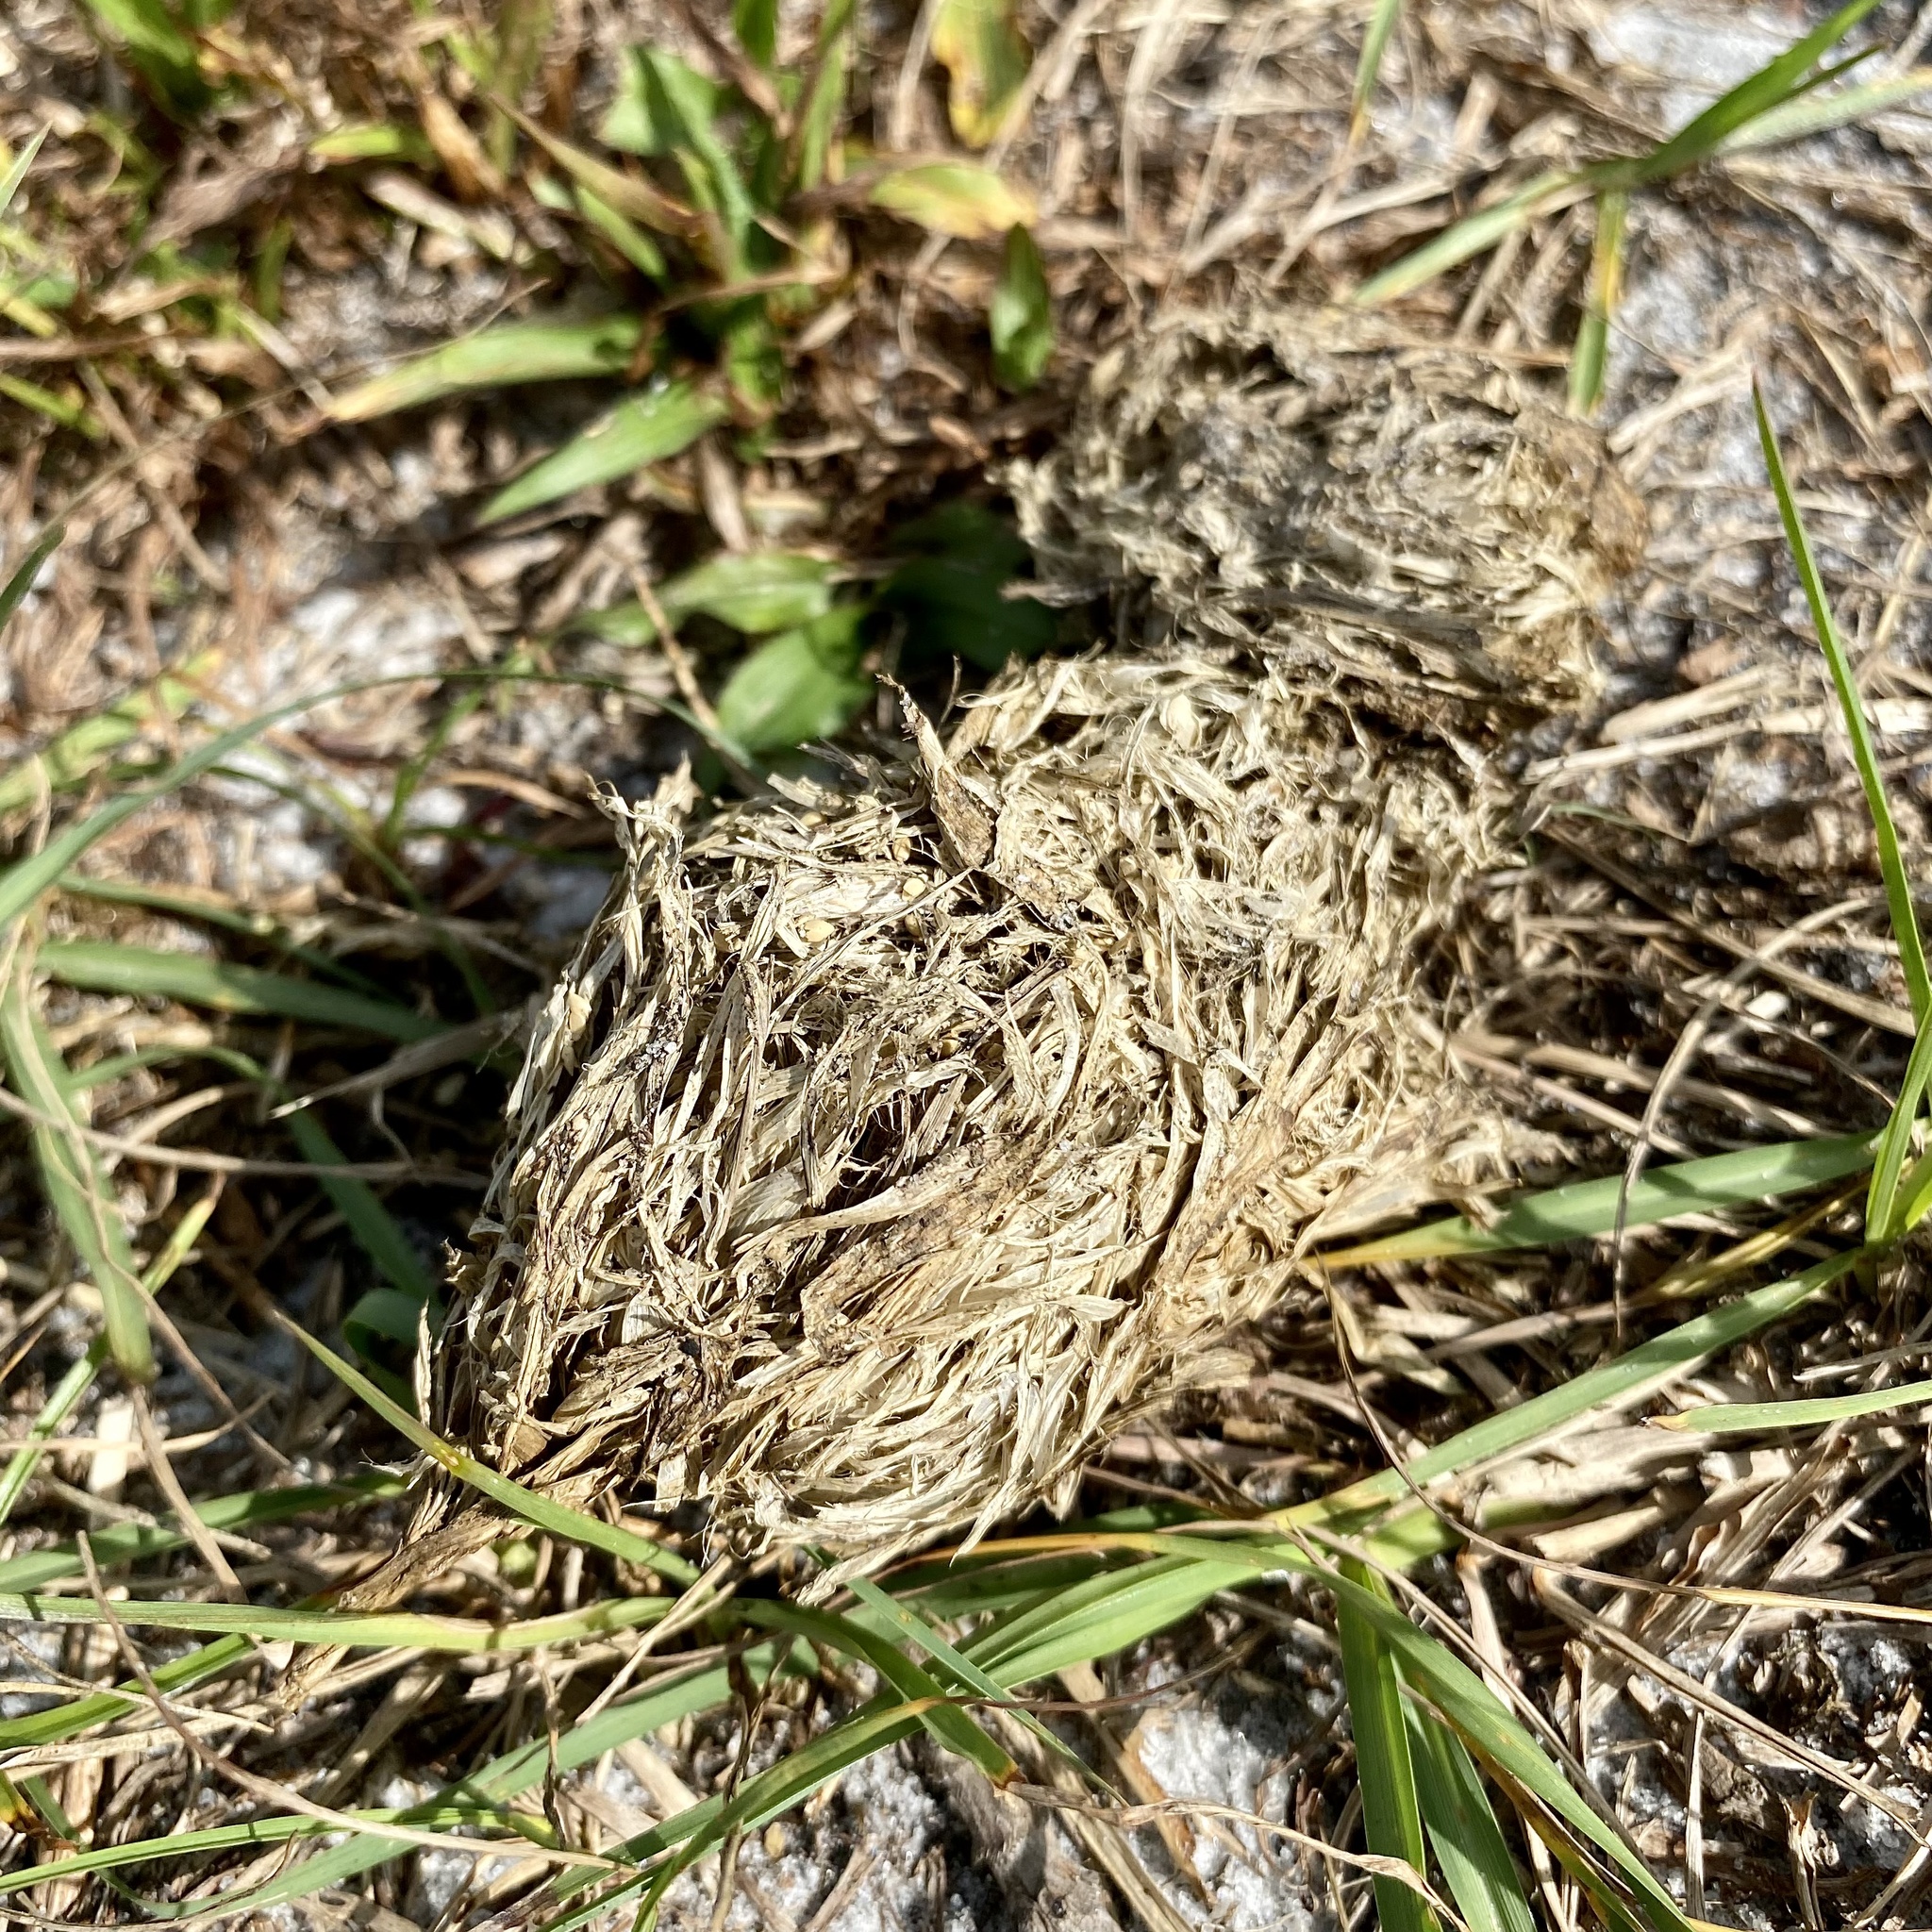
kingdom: Animalia
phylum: Chordata
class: Testudines
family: Testudinidae
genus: Gopherus
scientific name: Gopherus polyphemus
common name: Florida gopher tortoise
